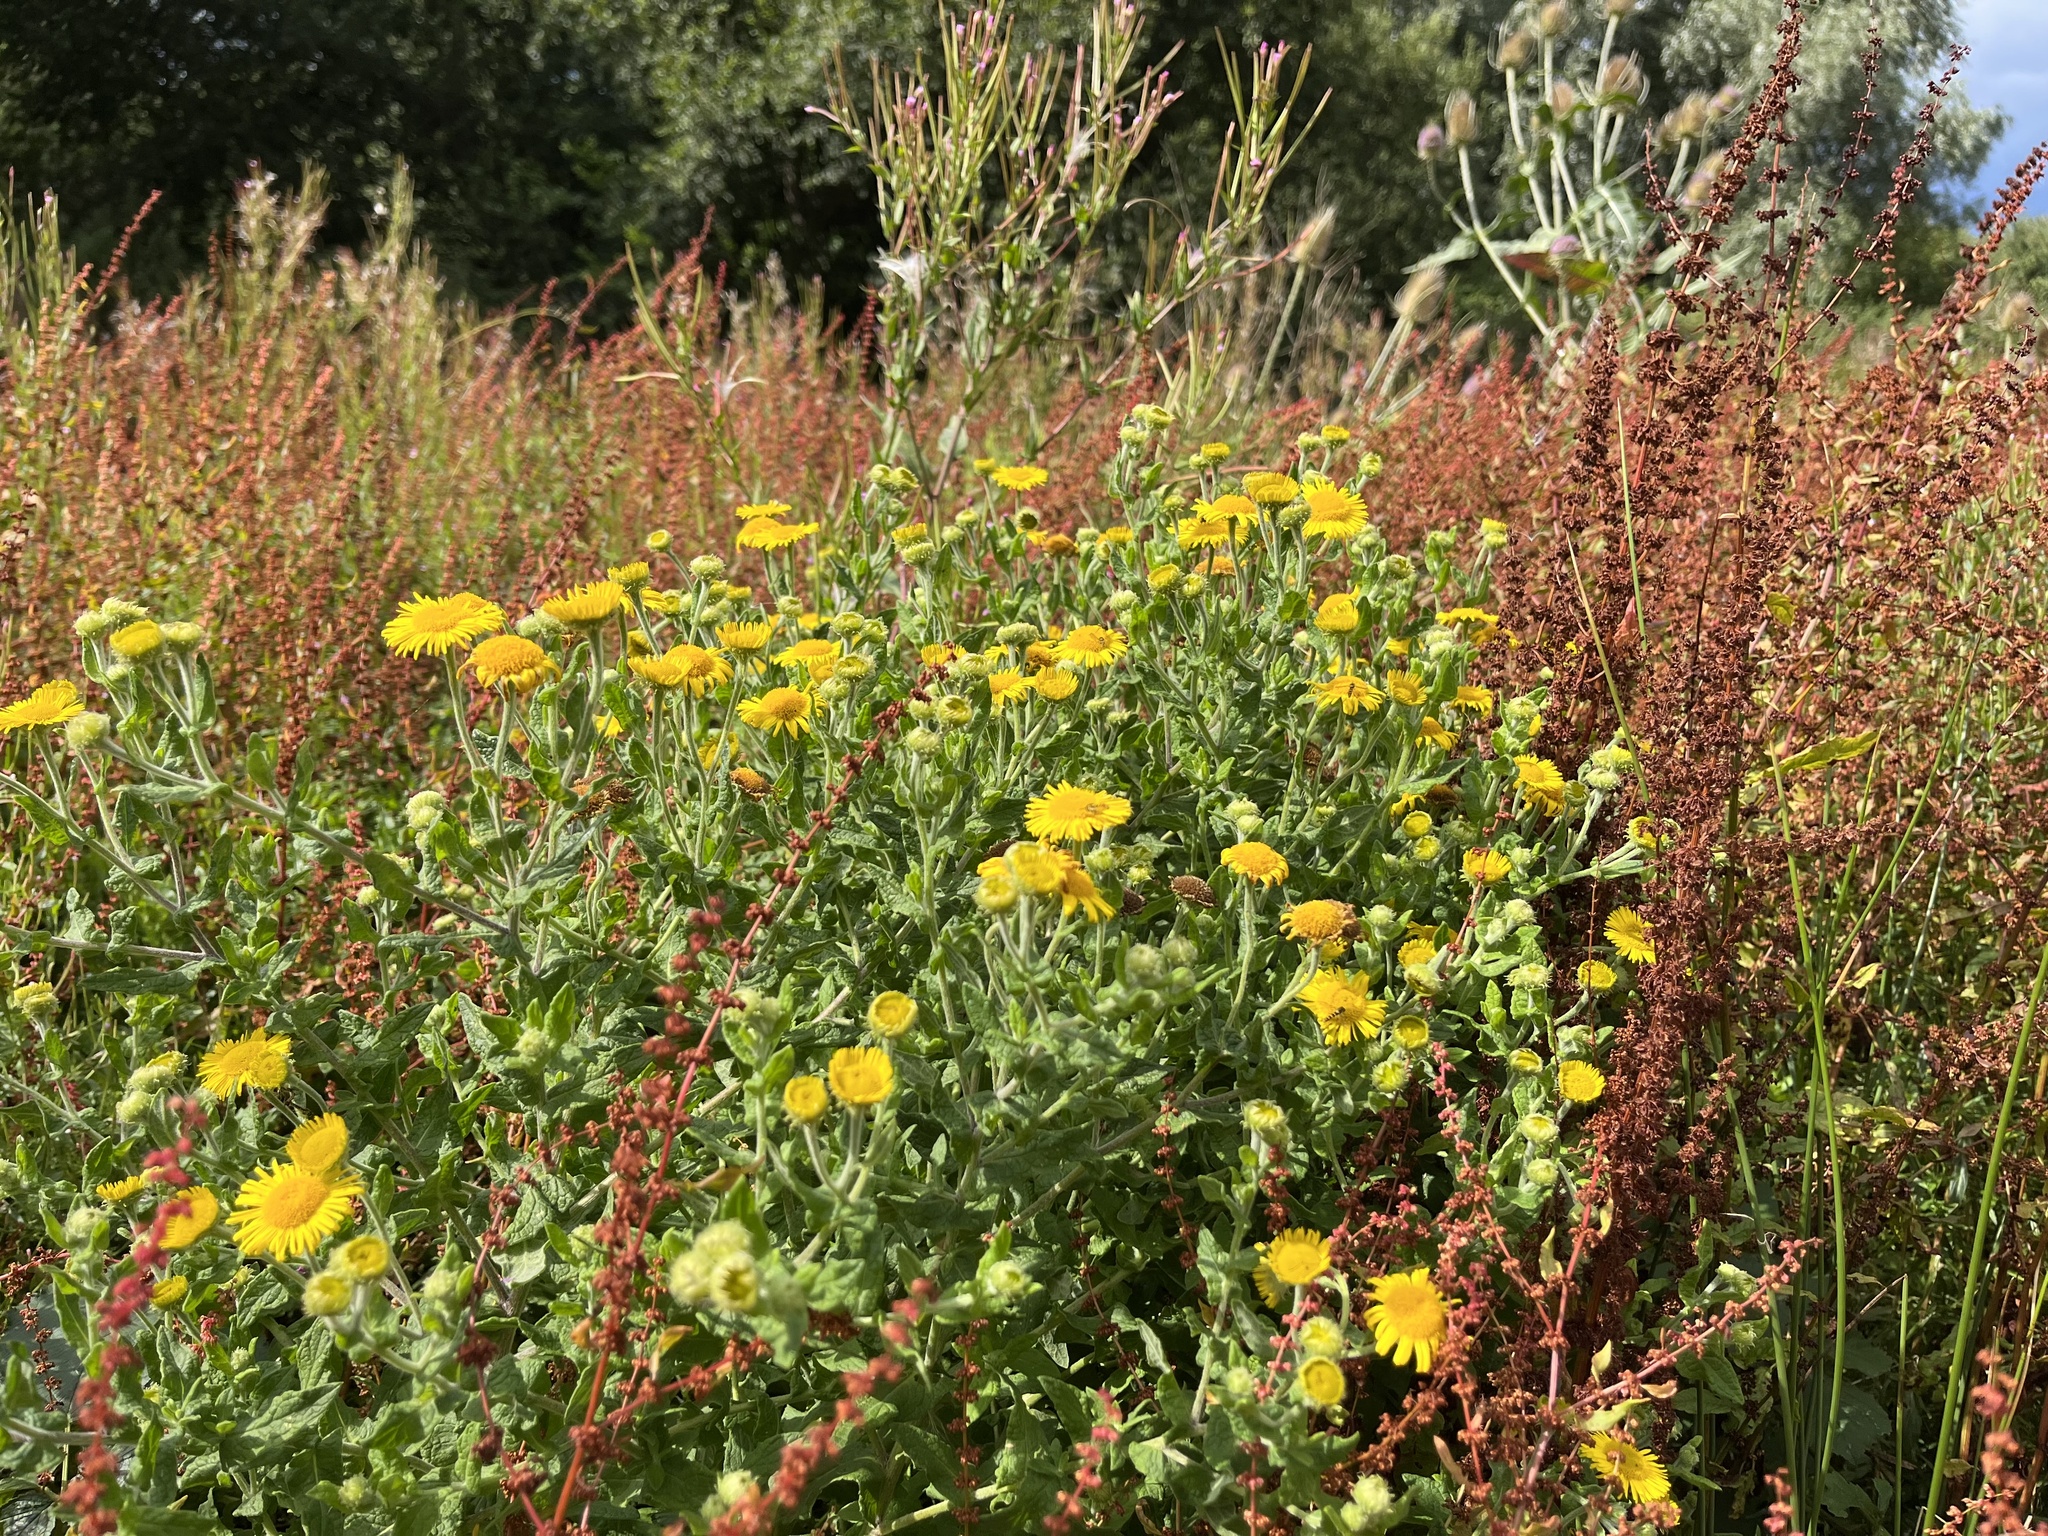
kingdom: Plantae
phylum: Tracheophyta
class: Magnoliopsida
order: Asterales
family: Asteraceae
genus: Pulicaria
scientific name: Pulicaria dysenterica
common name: Common fleabane
